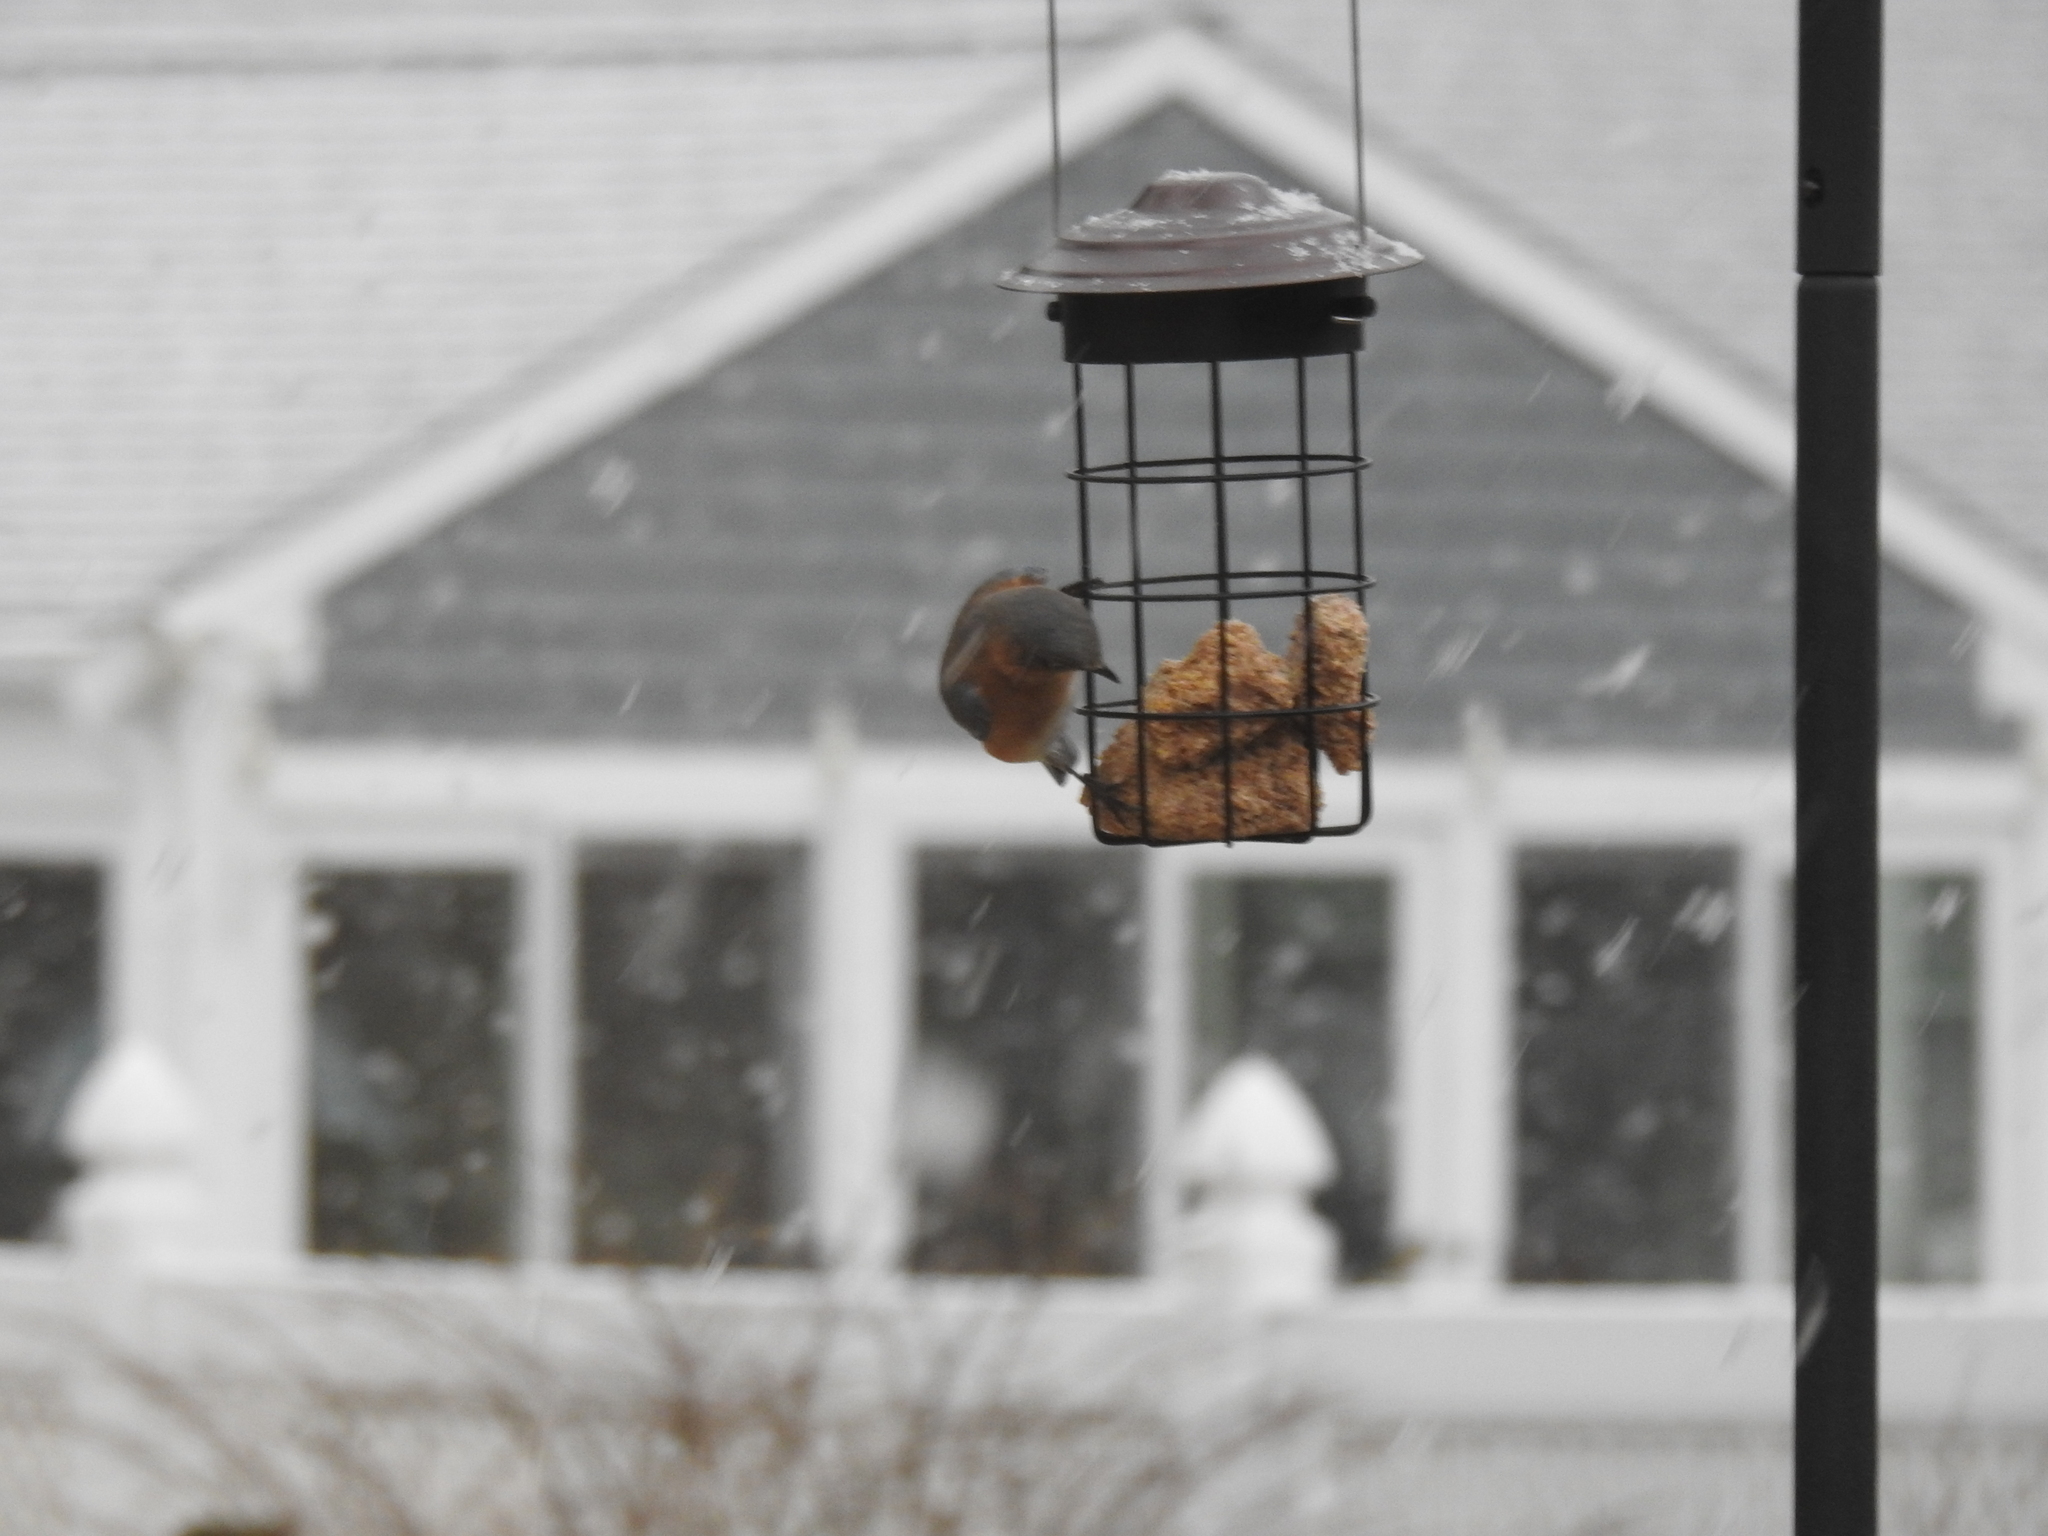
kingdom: Animalia
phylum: Chordata
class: Aves
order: Passeriformes
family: Turdidae
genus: Sialia
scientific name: Sialia sialis
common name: Eastern bluebird
